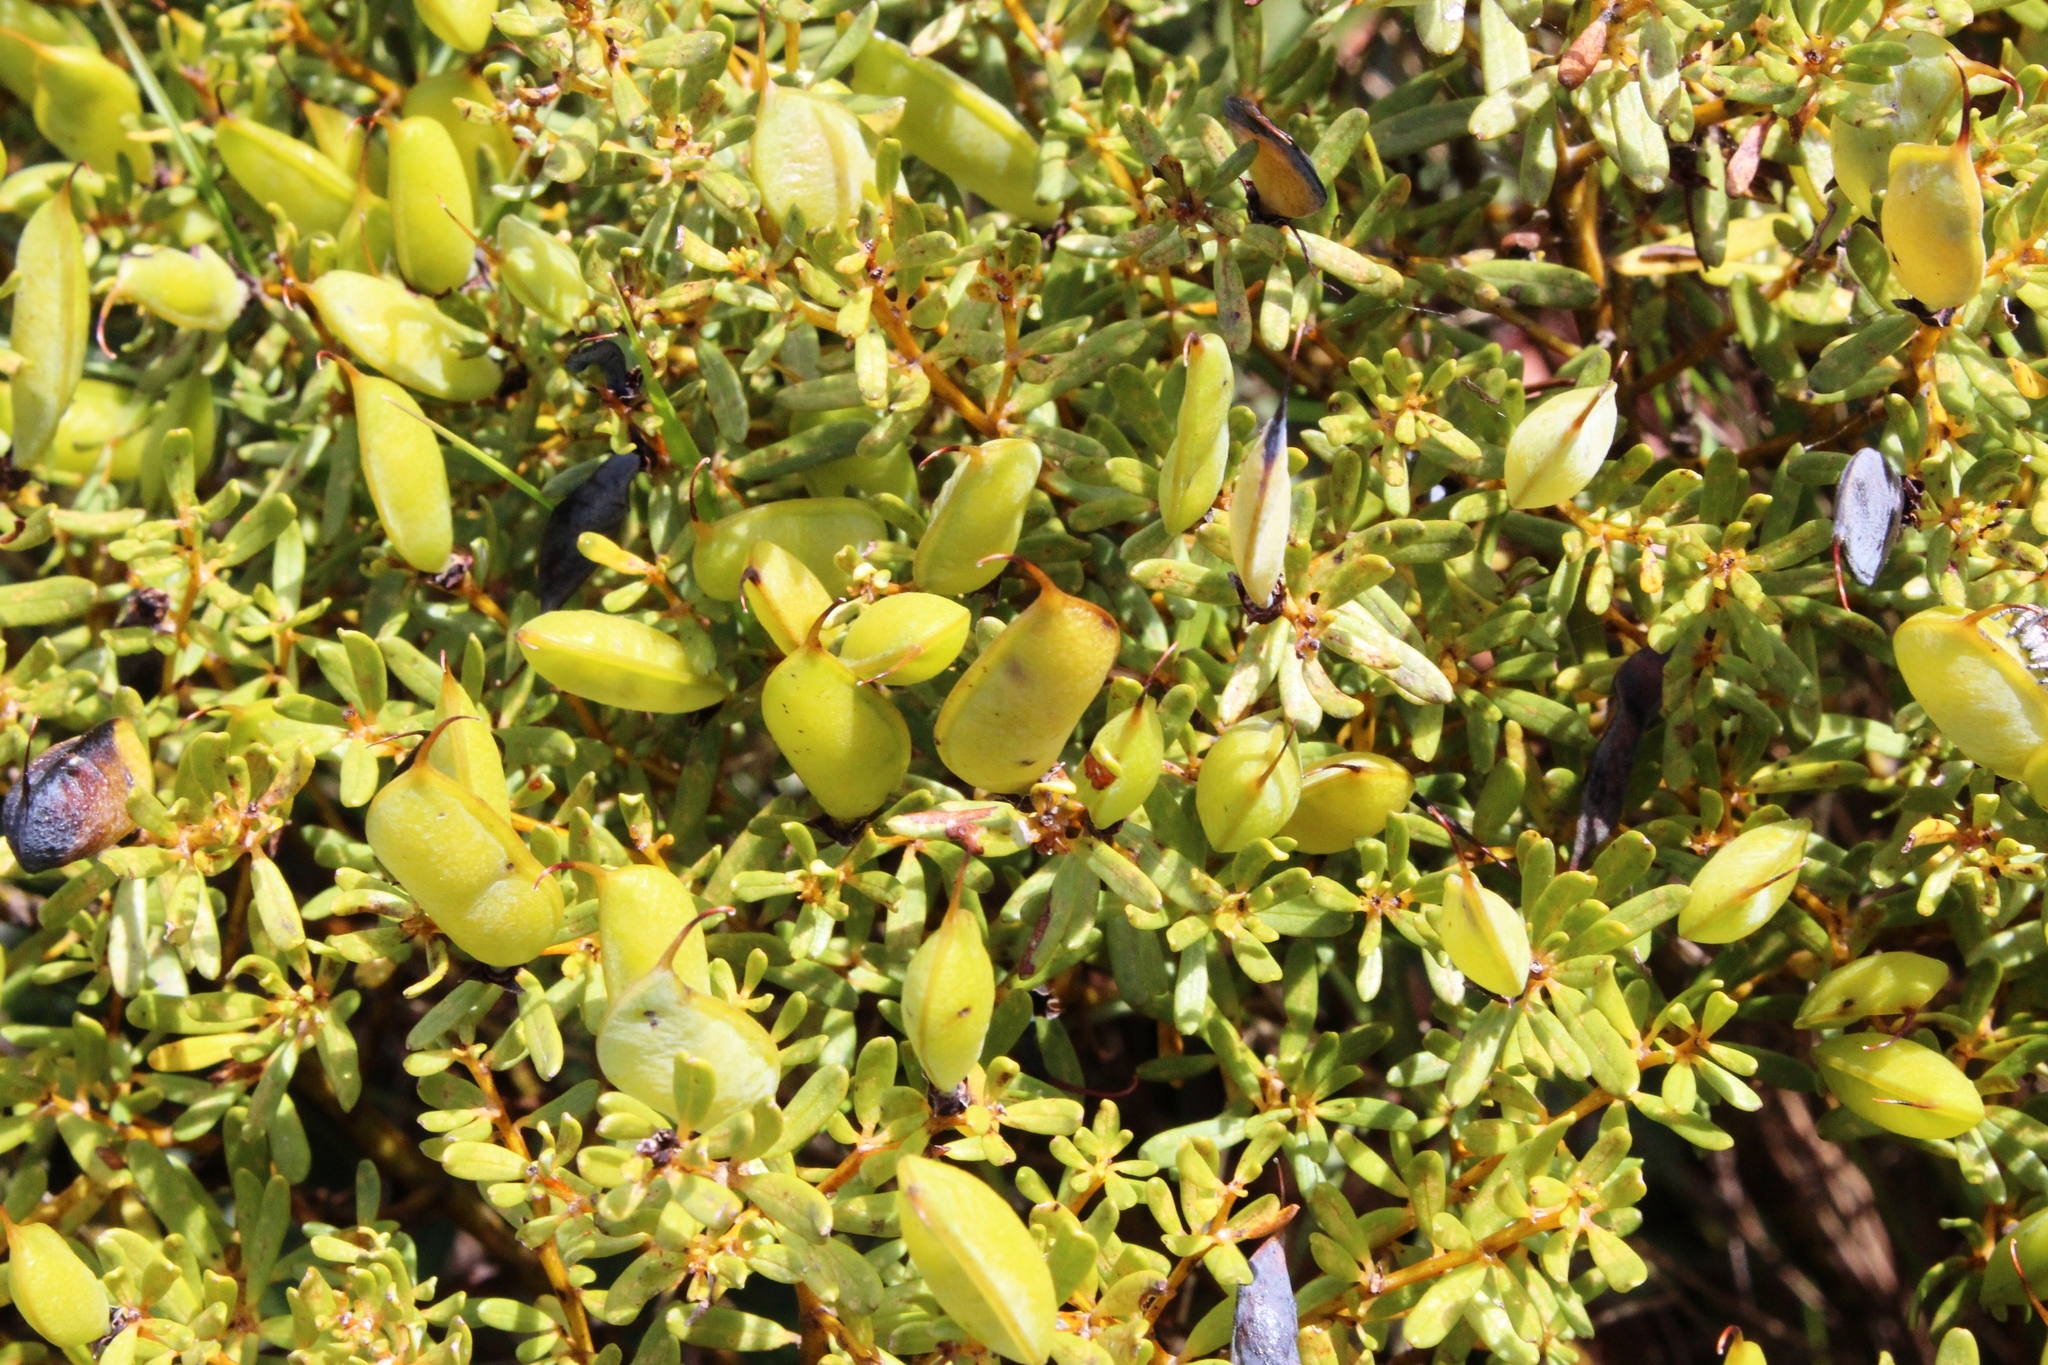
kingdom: Plantae
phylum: Tracheophyta
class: Magnoliopsida
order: Fabales
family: Fabaceae
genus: Cyclopia
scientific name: Cyclopia sessiliflora
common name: Heidelberg tea
